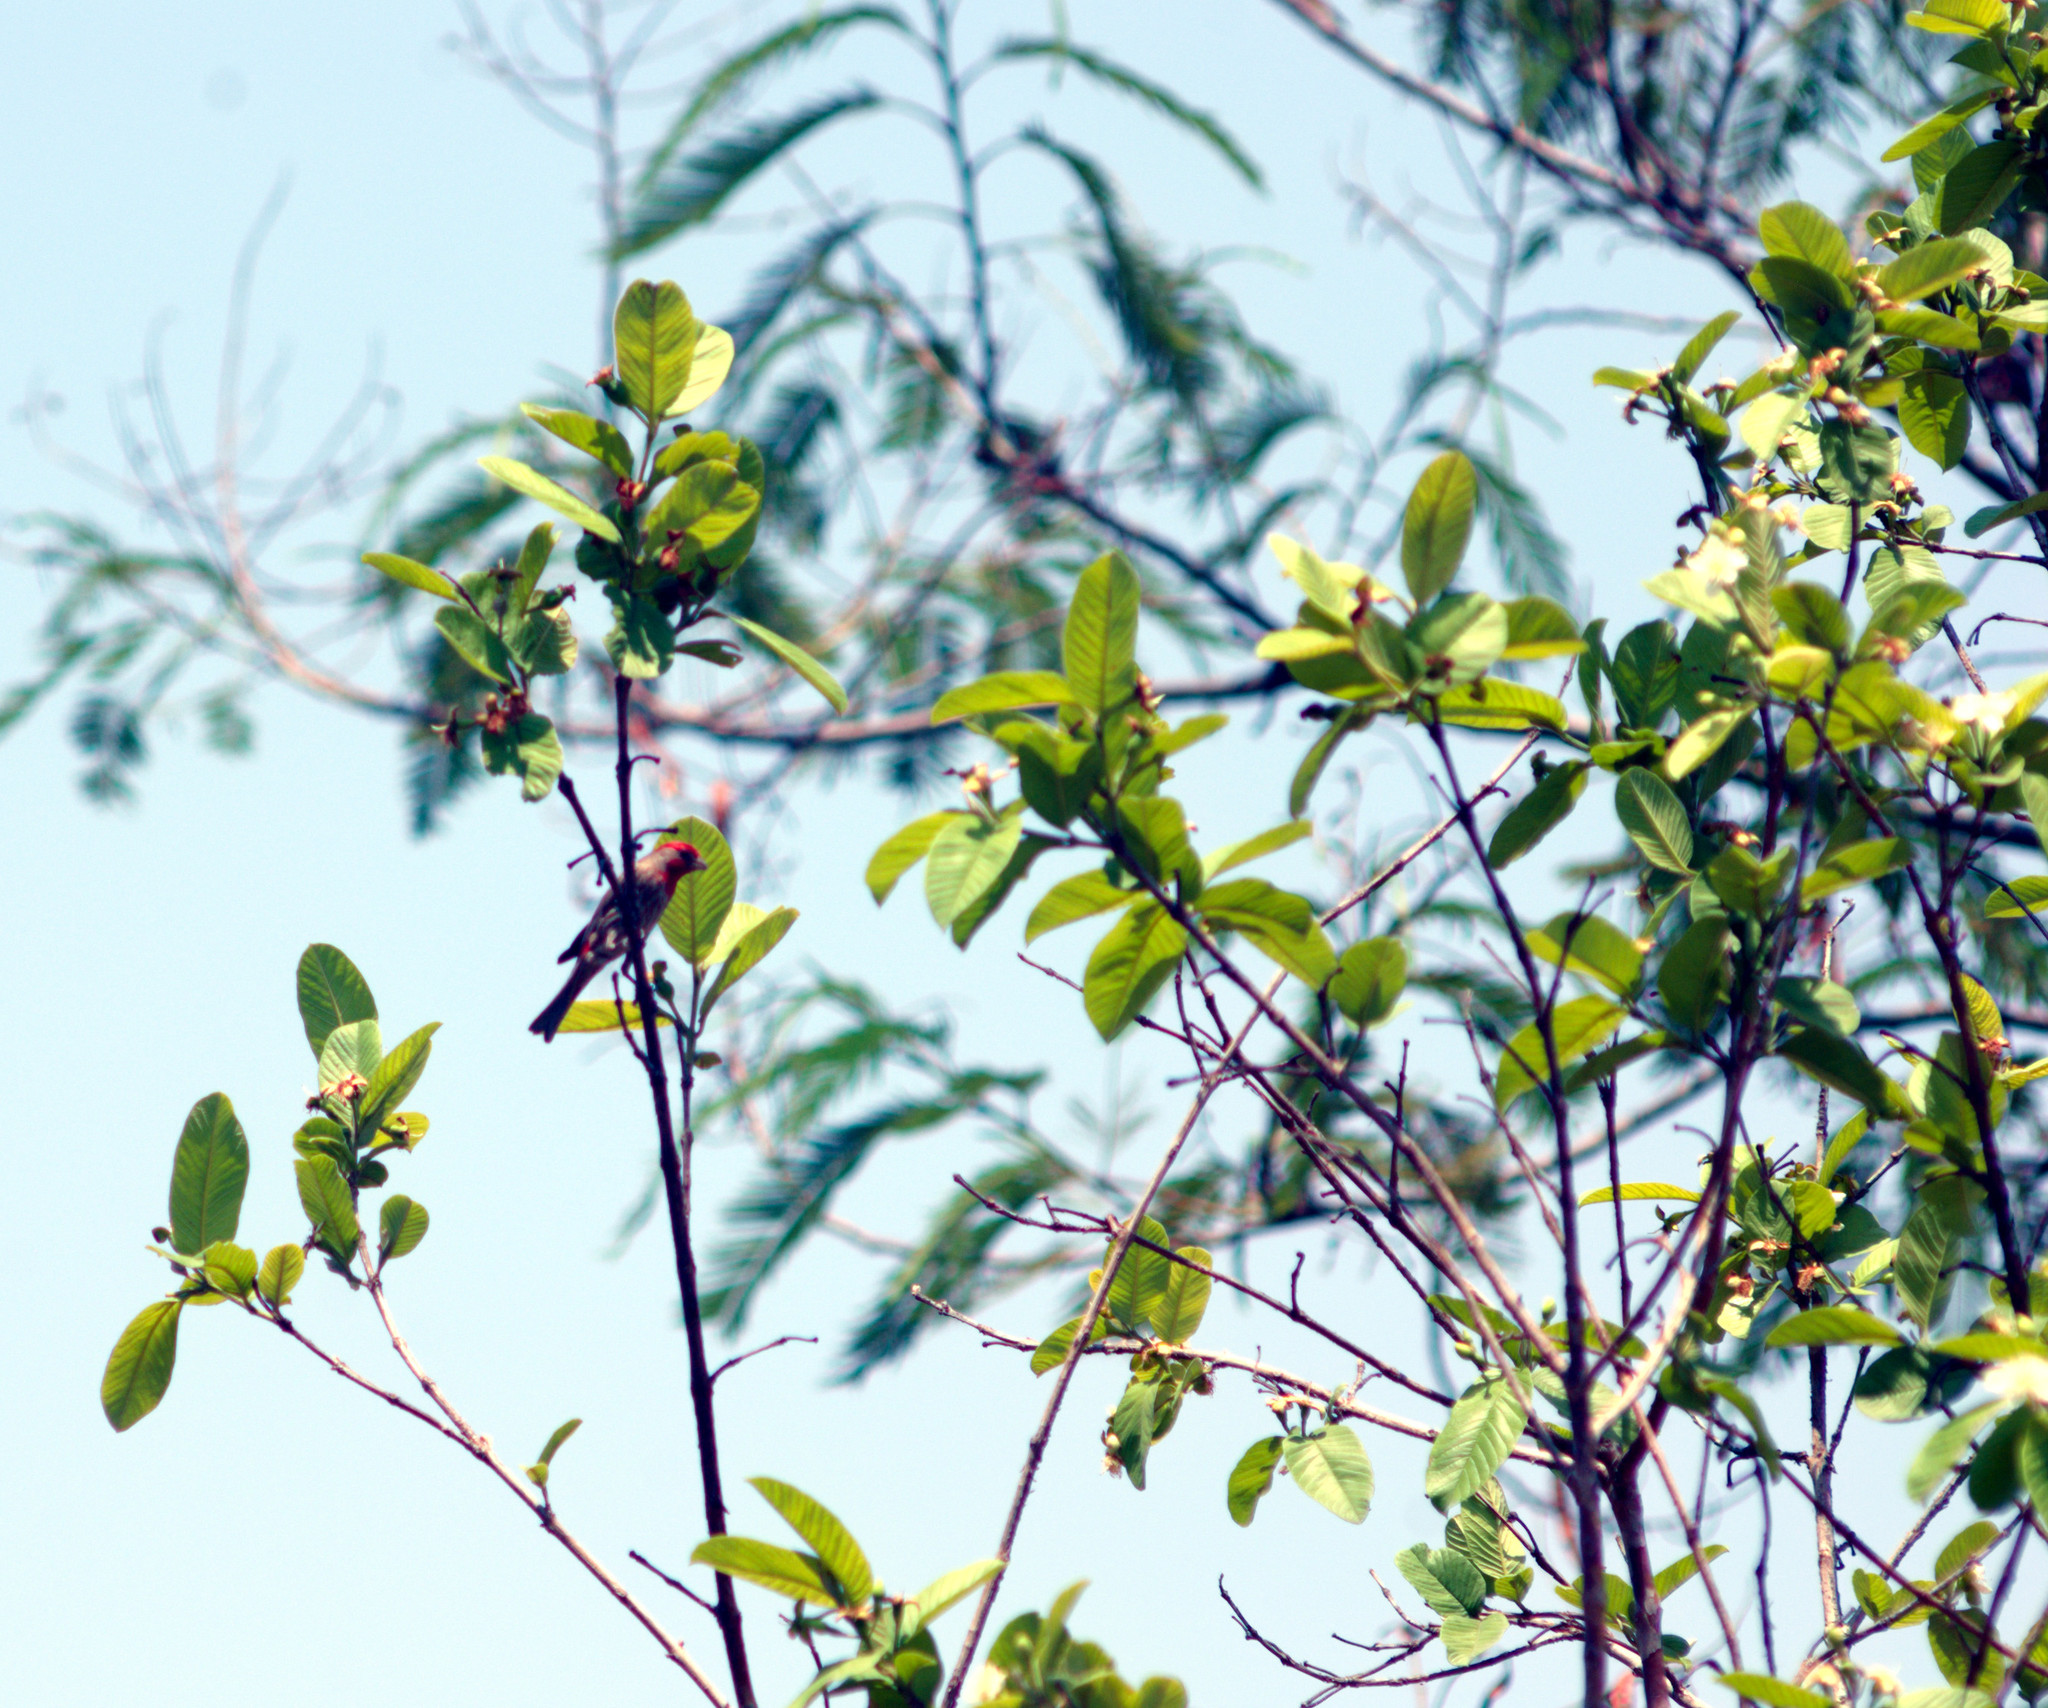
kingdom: Animalia
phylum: Chordata
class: Aves
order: Passeriformes
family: Fringillidae
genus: Haemorhous
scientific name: Haemorhous mexicanus
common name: House finch
